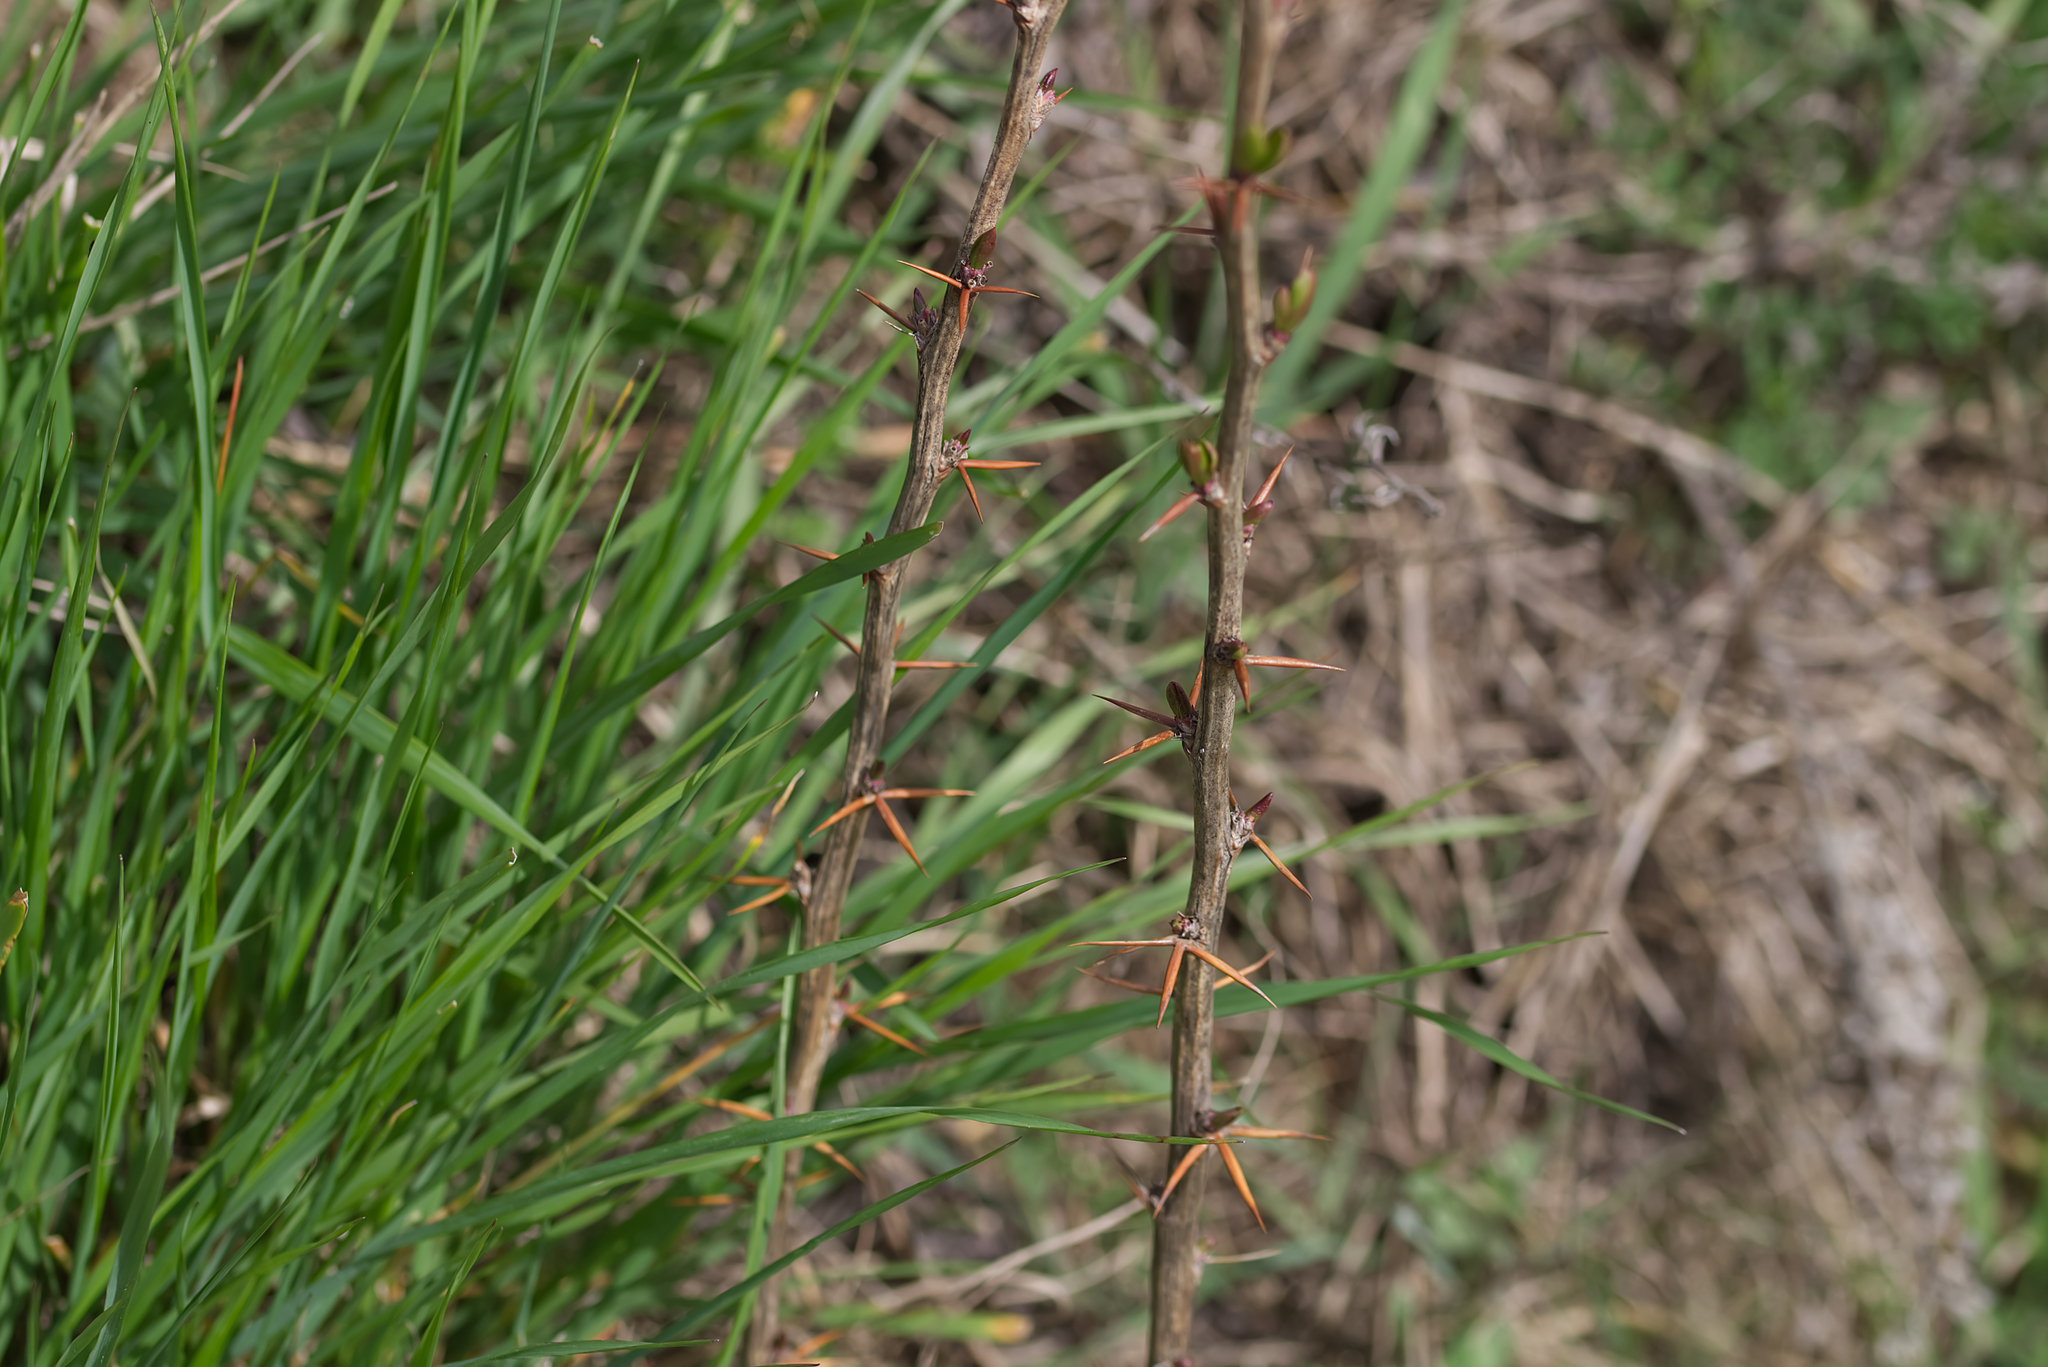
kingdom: Plantae
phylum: Tracheophyta
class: Magnoliopsida
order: Ranunculales
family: Berberidaceae
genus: Berberis
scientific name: Berberis vulgaris
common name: Barberry
